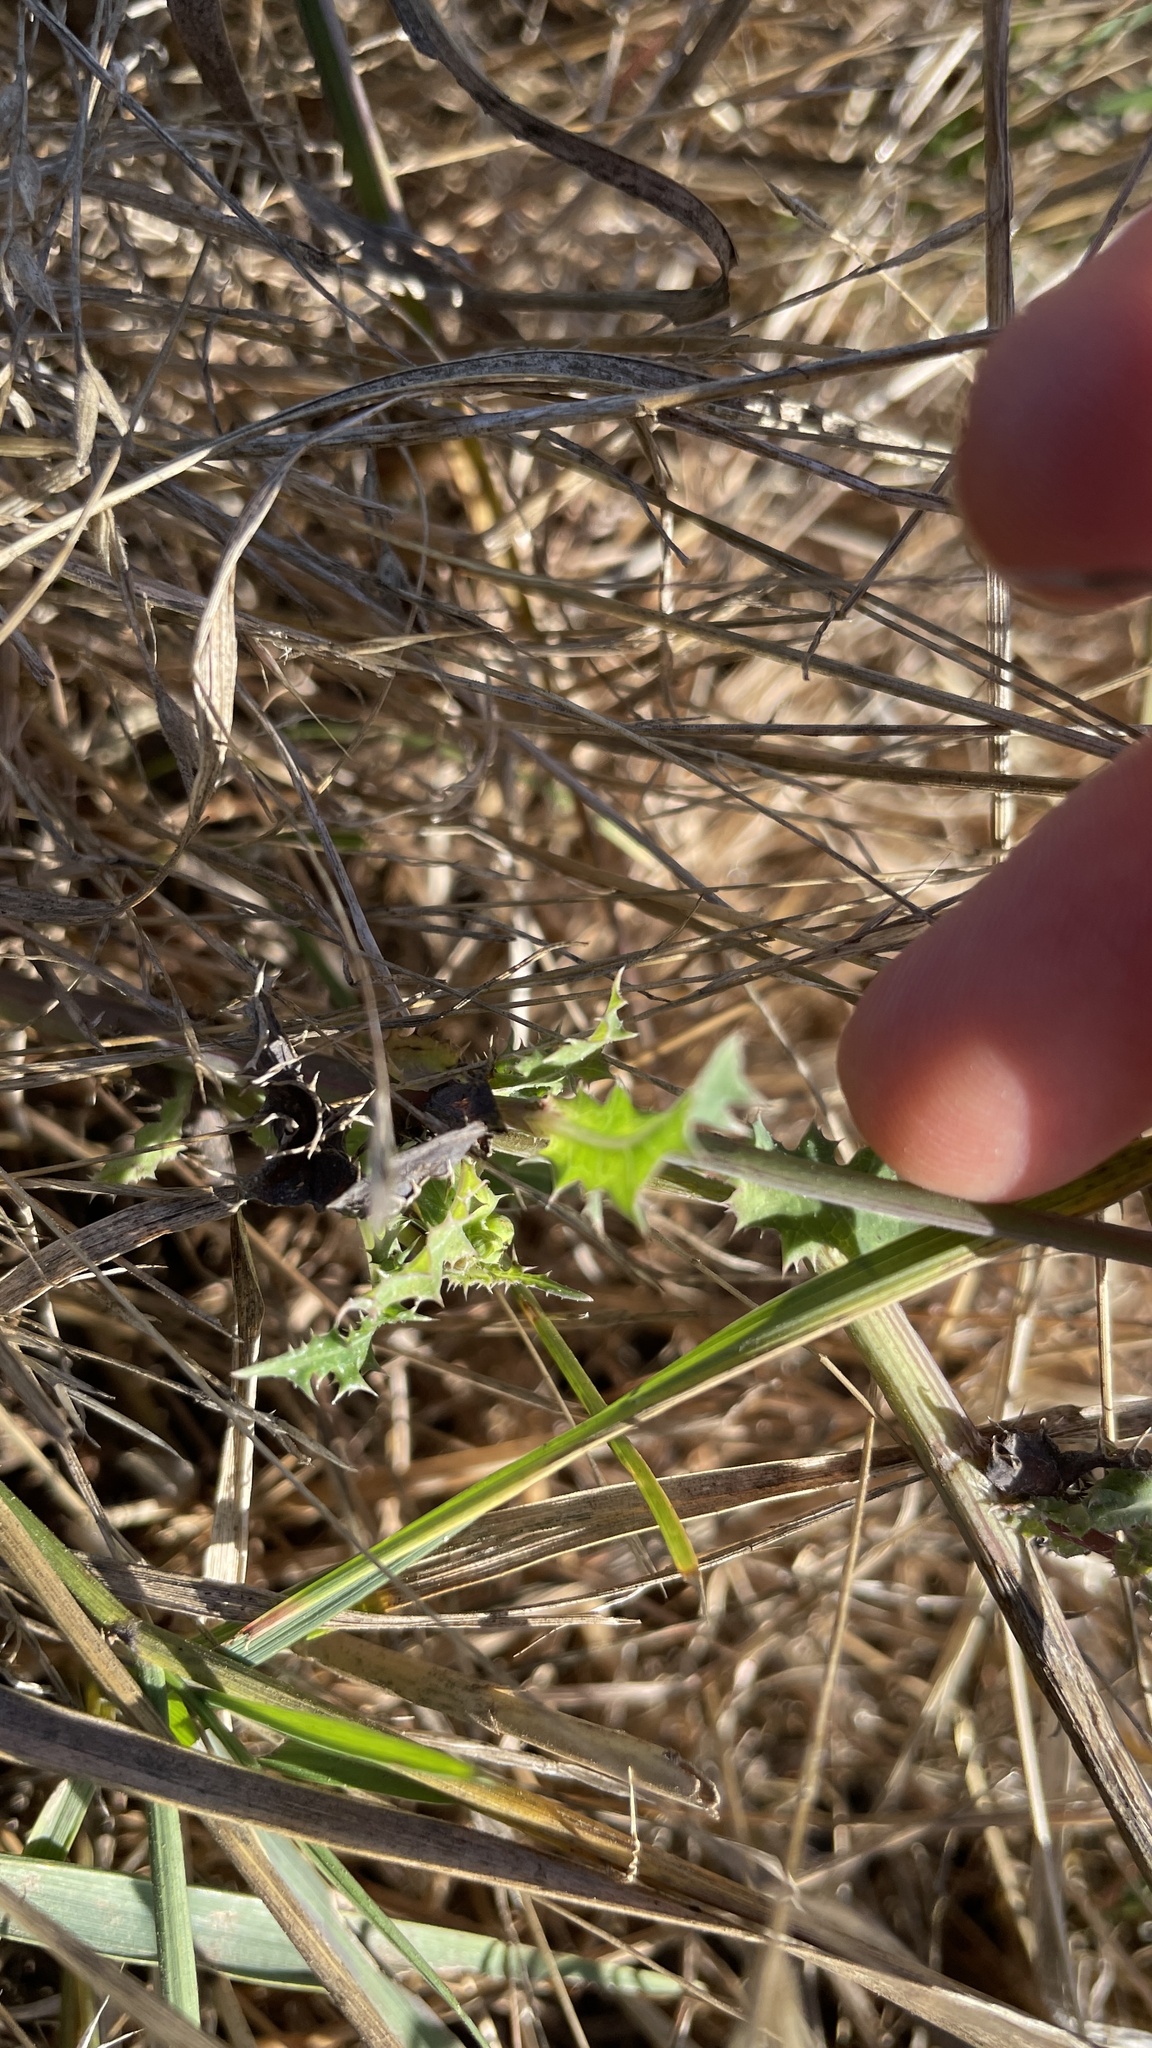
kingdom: Plantae
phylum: Tracheophyta
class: Magnoliopsida
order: Asterales
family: Asteraceae
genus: Sonchus
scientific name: Sonchus oleraceus
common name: Common sowthistle
